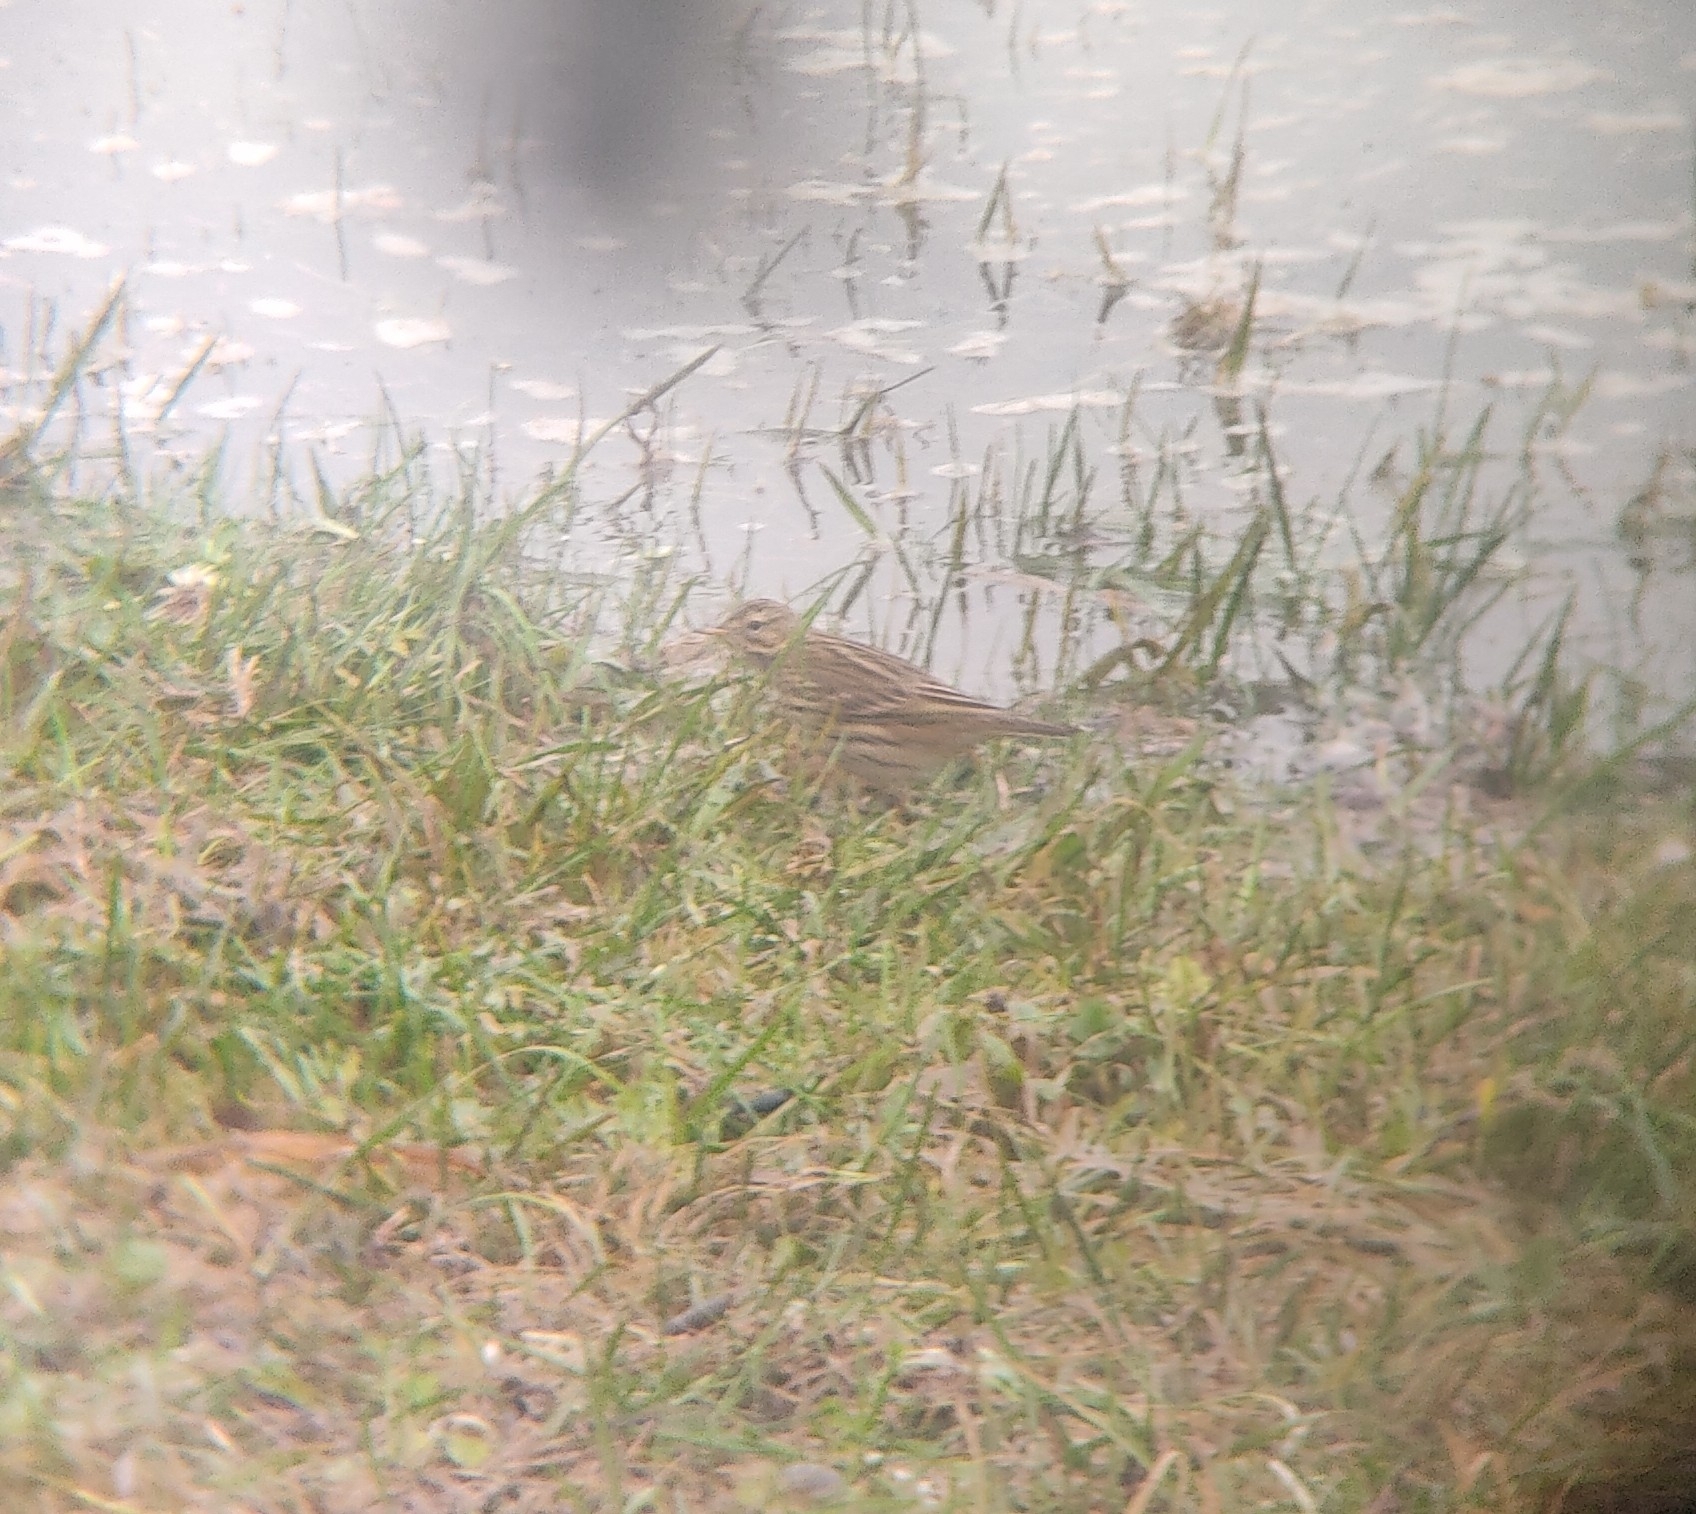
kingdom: Animalia
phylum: Chordata
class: Aves
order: Passeriformes
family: Motacillidae
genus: Anthus
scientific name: Anthus pratensis
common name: Meadow pipit
